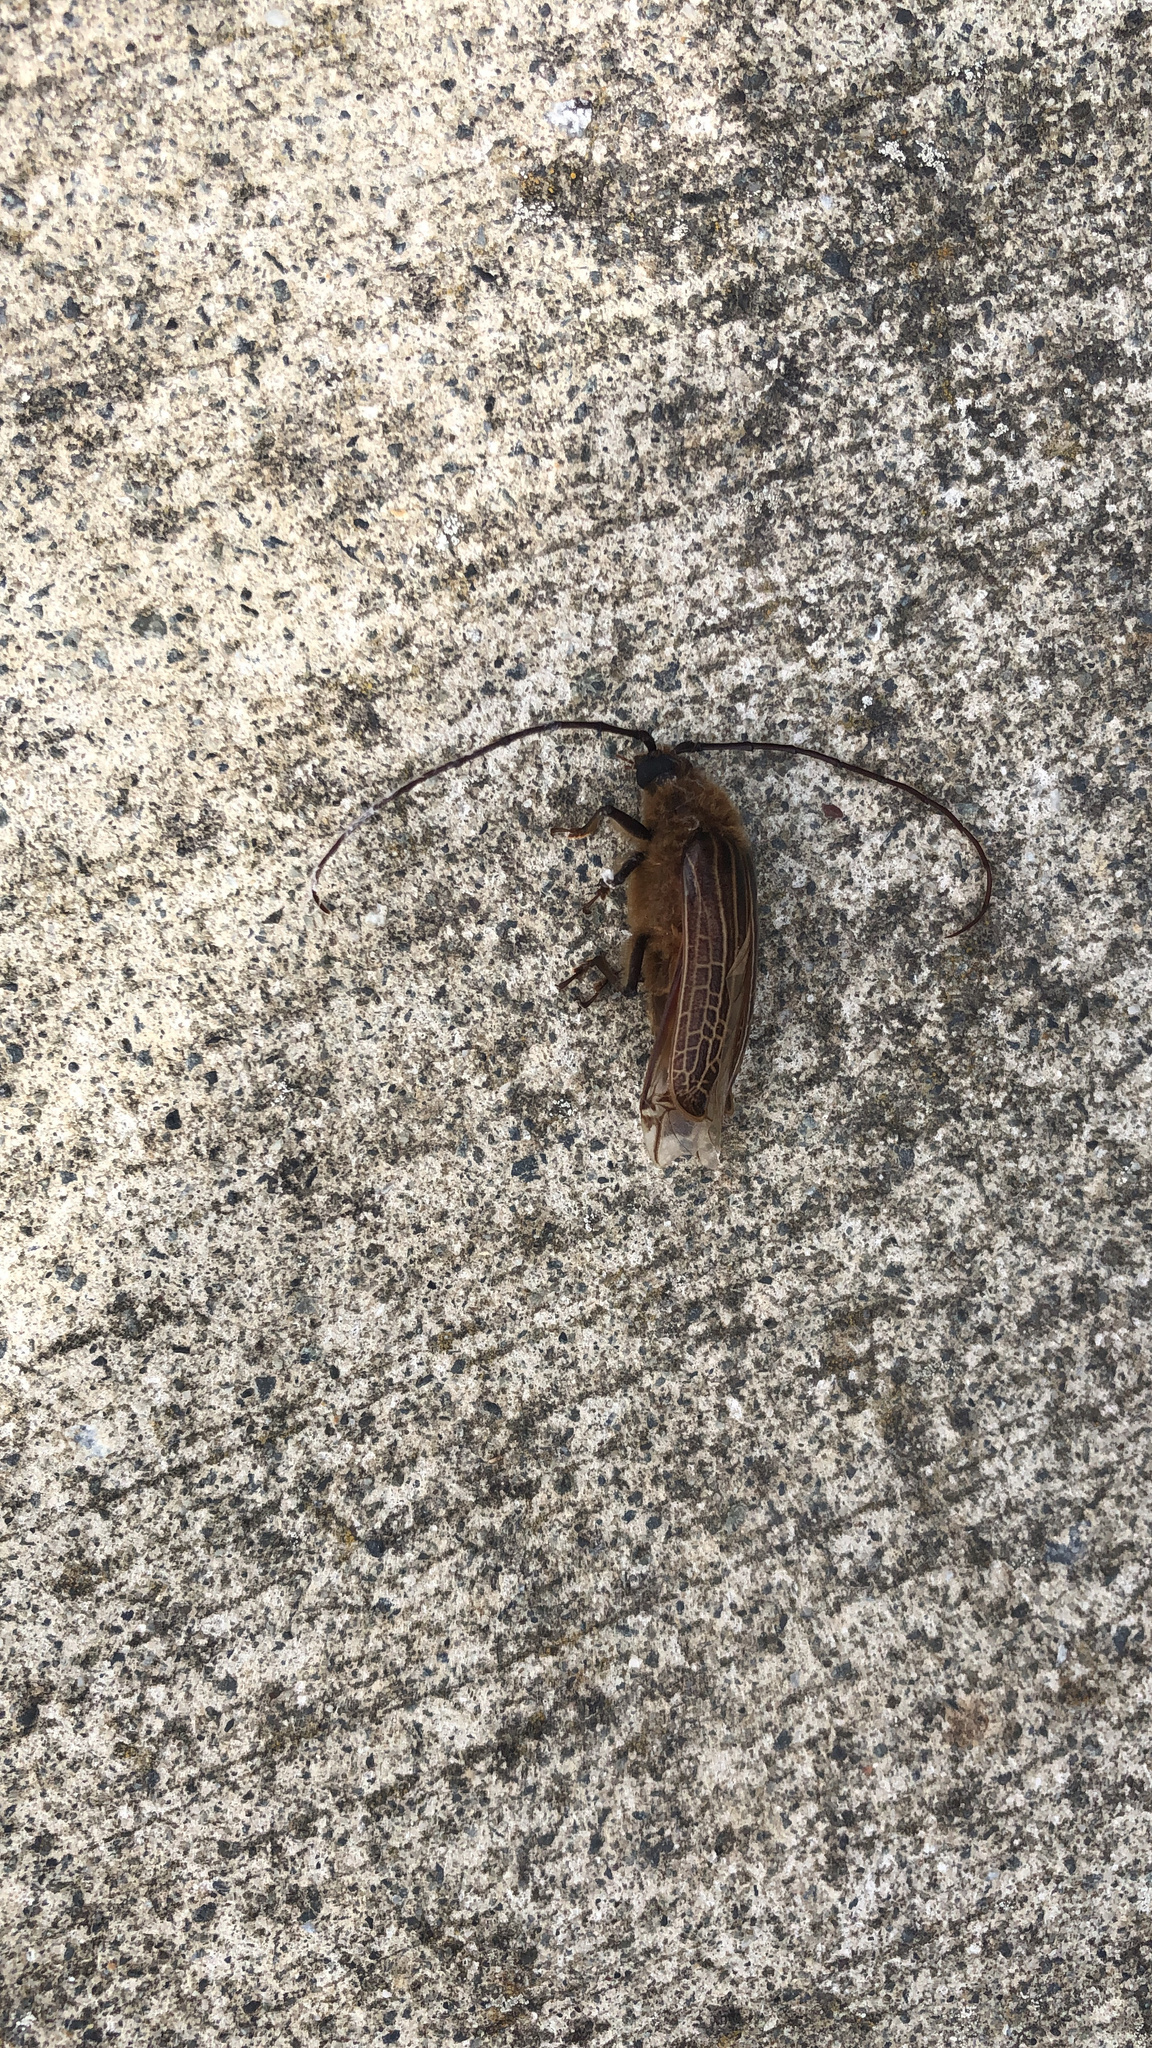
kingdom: Animalia
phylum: Arthropoda
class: Insecta
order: Coleoptera
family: Cerambycidae
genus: Prionoplus
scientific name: Prionoplus reticularis
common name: Huhu beetle
